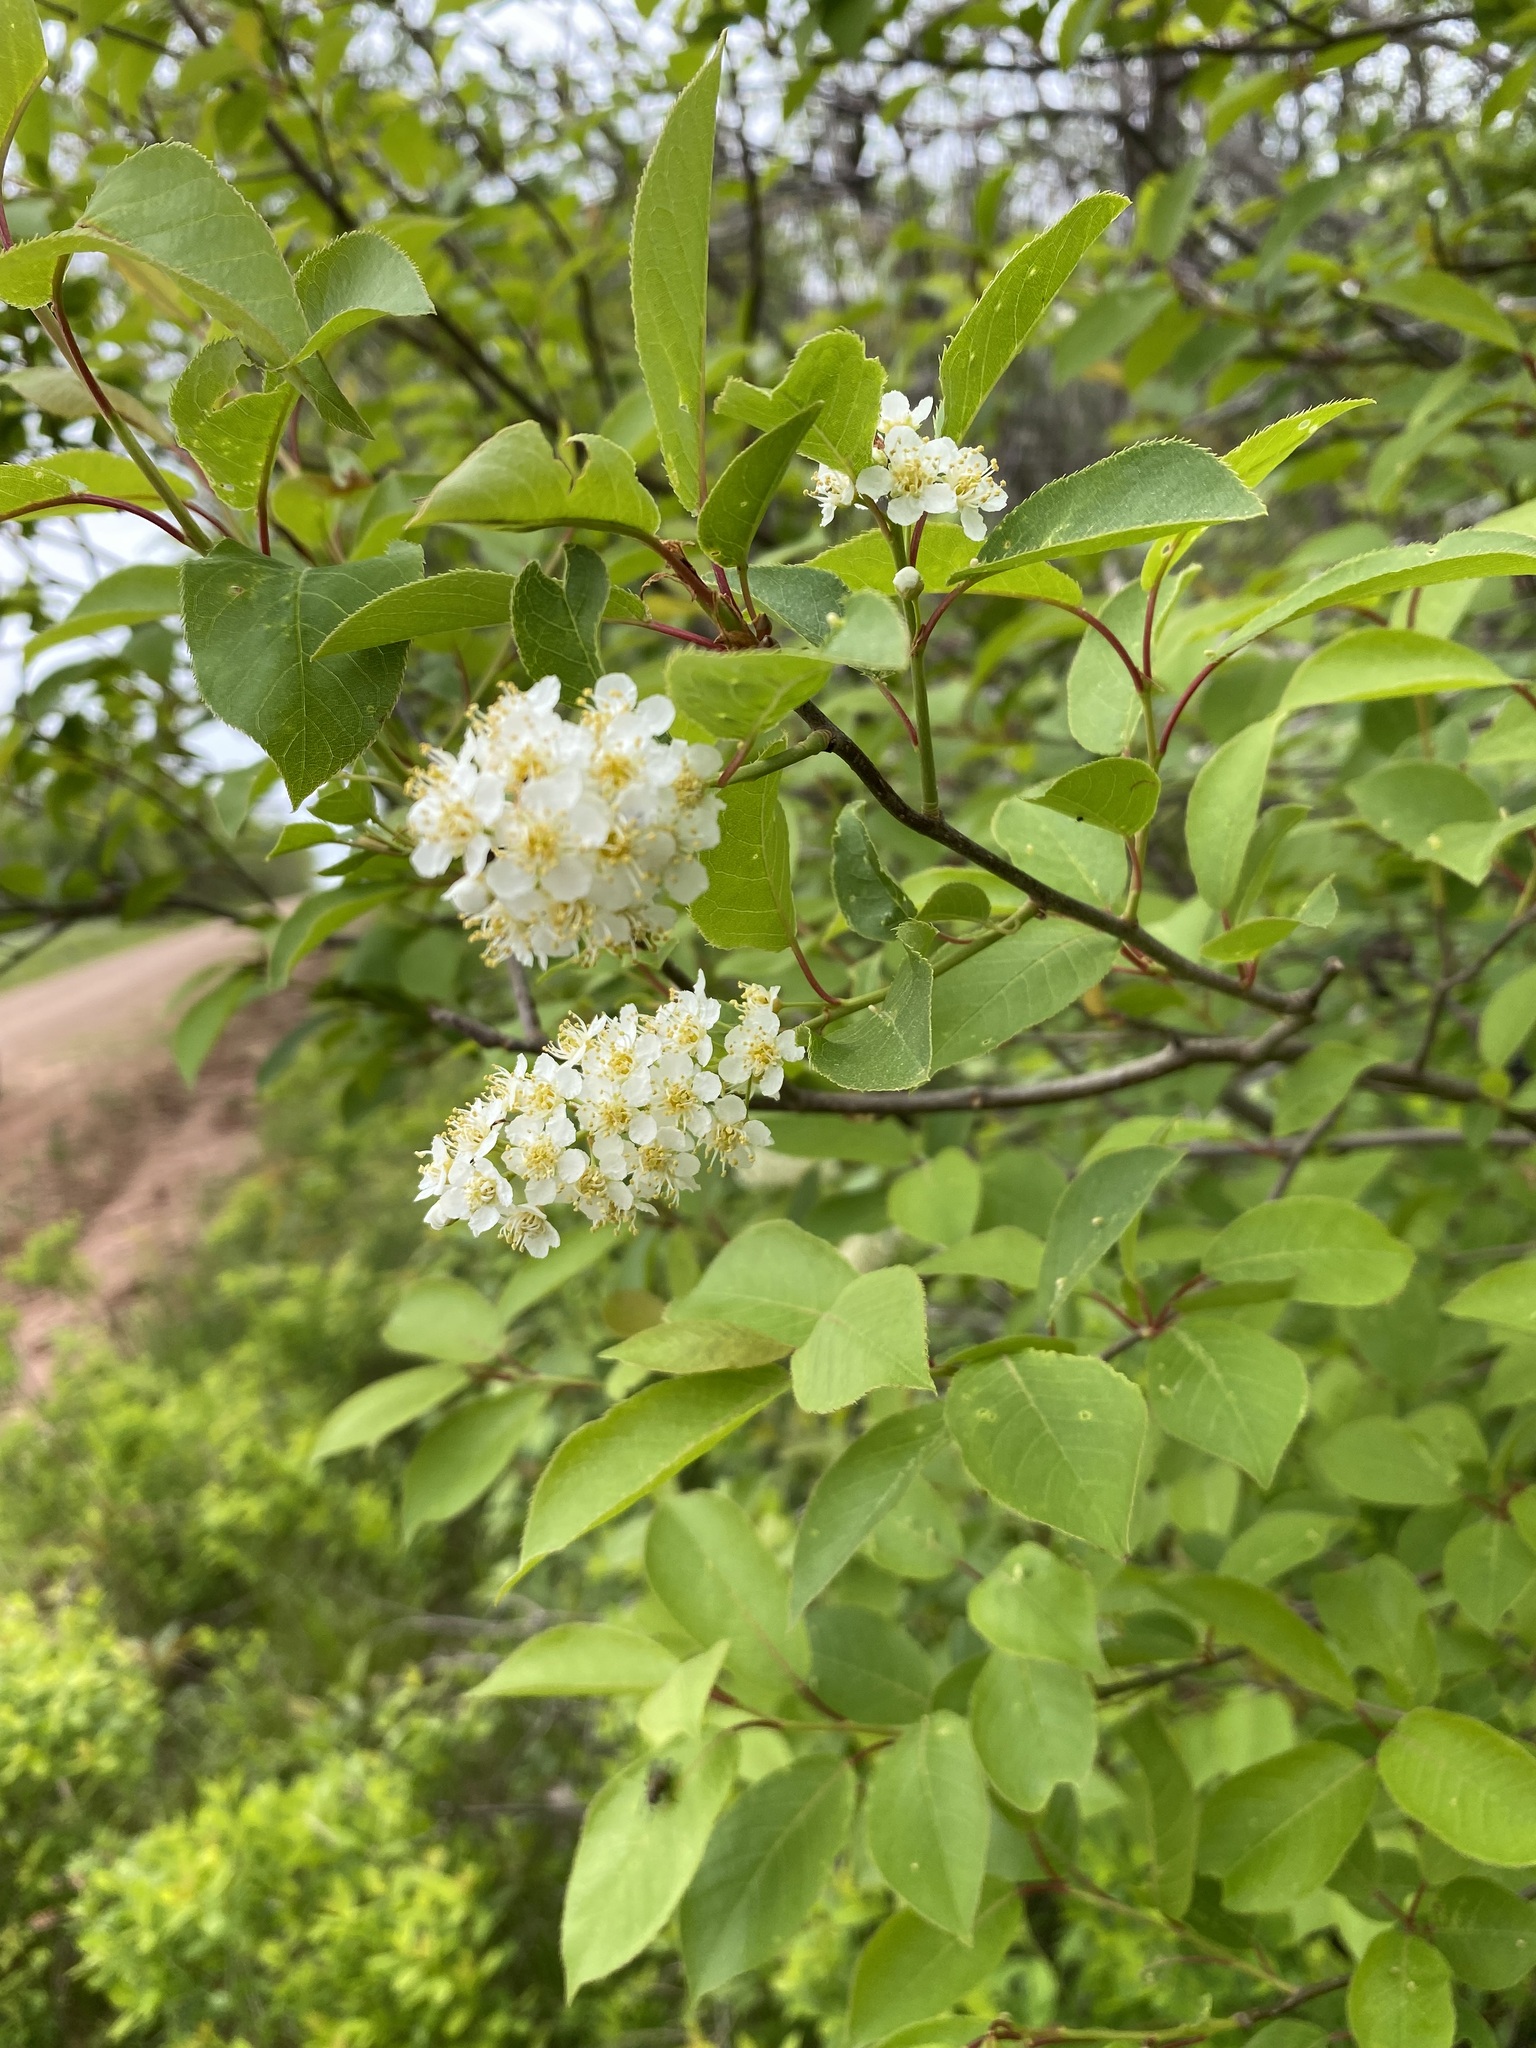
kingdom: Plantae
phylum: Tracheophyta
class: Magnoliopsida
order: Rosales
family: Rosaceae
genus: Prunus
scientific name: Prunus virginiana
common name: Chokecherry
